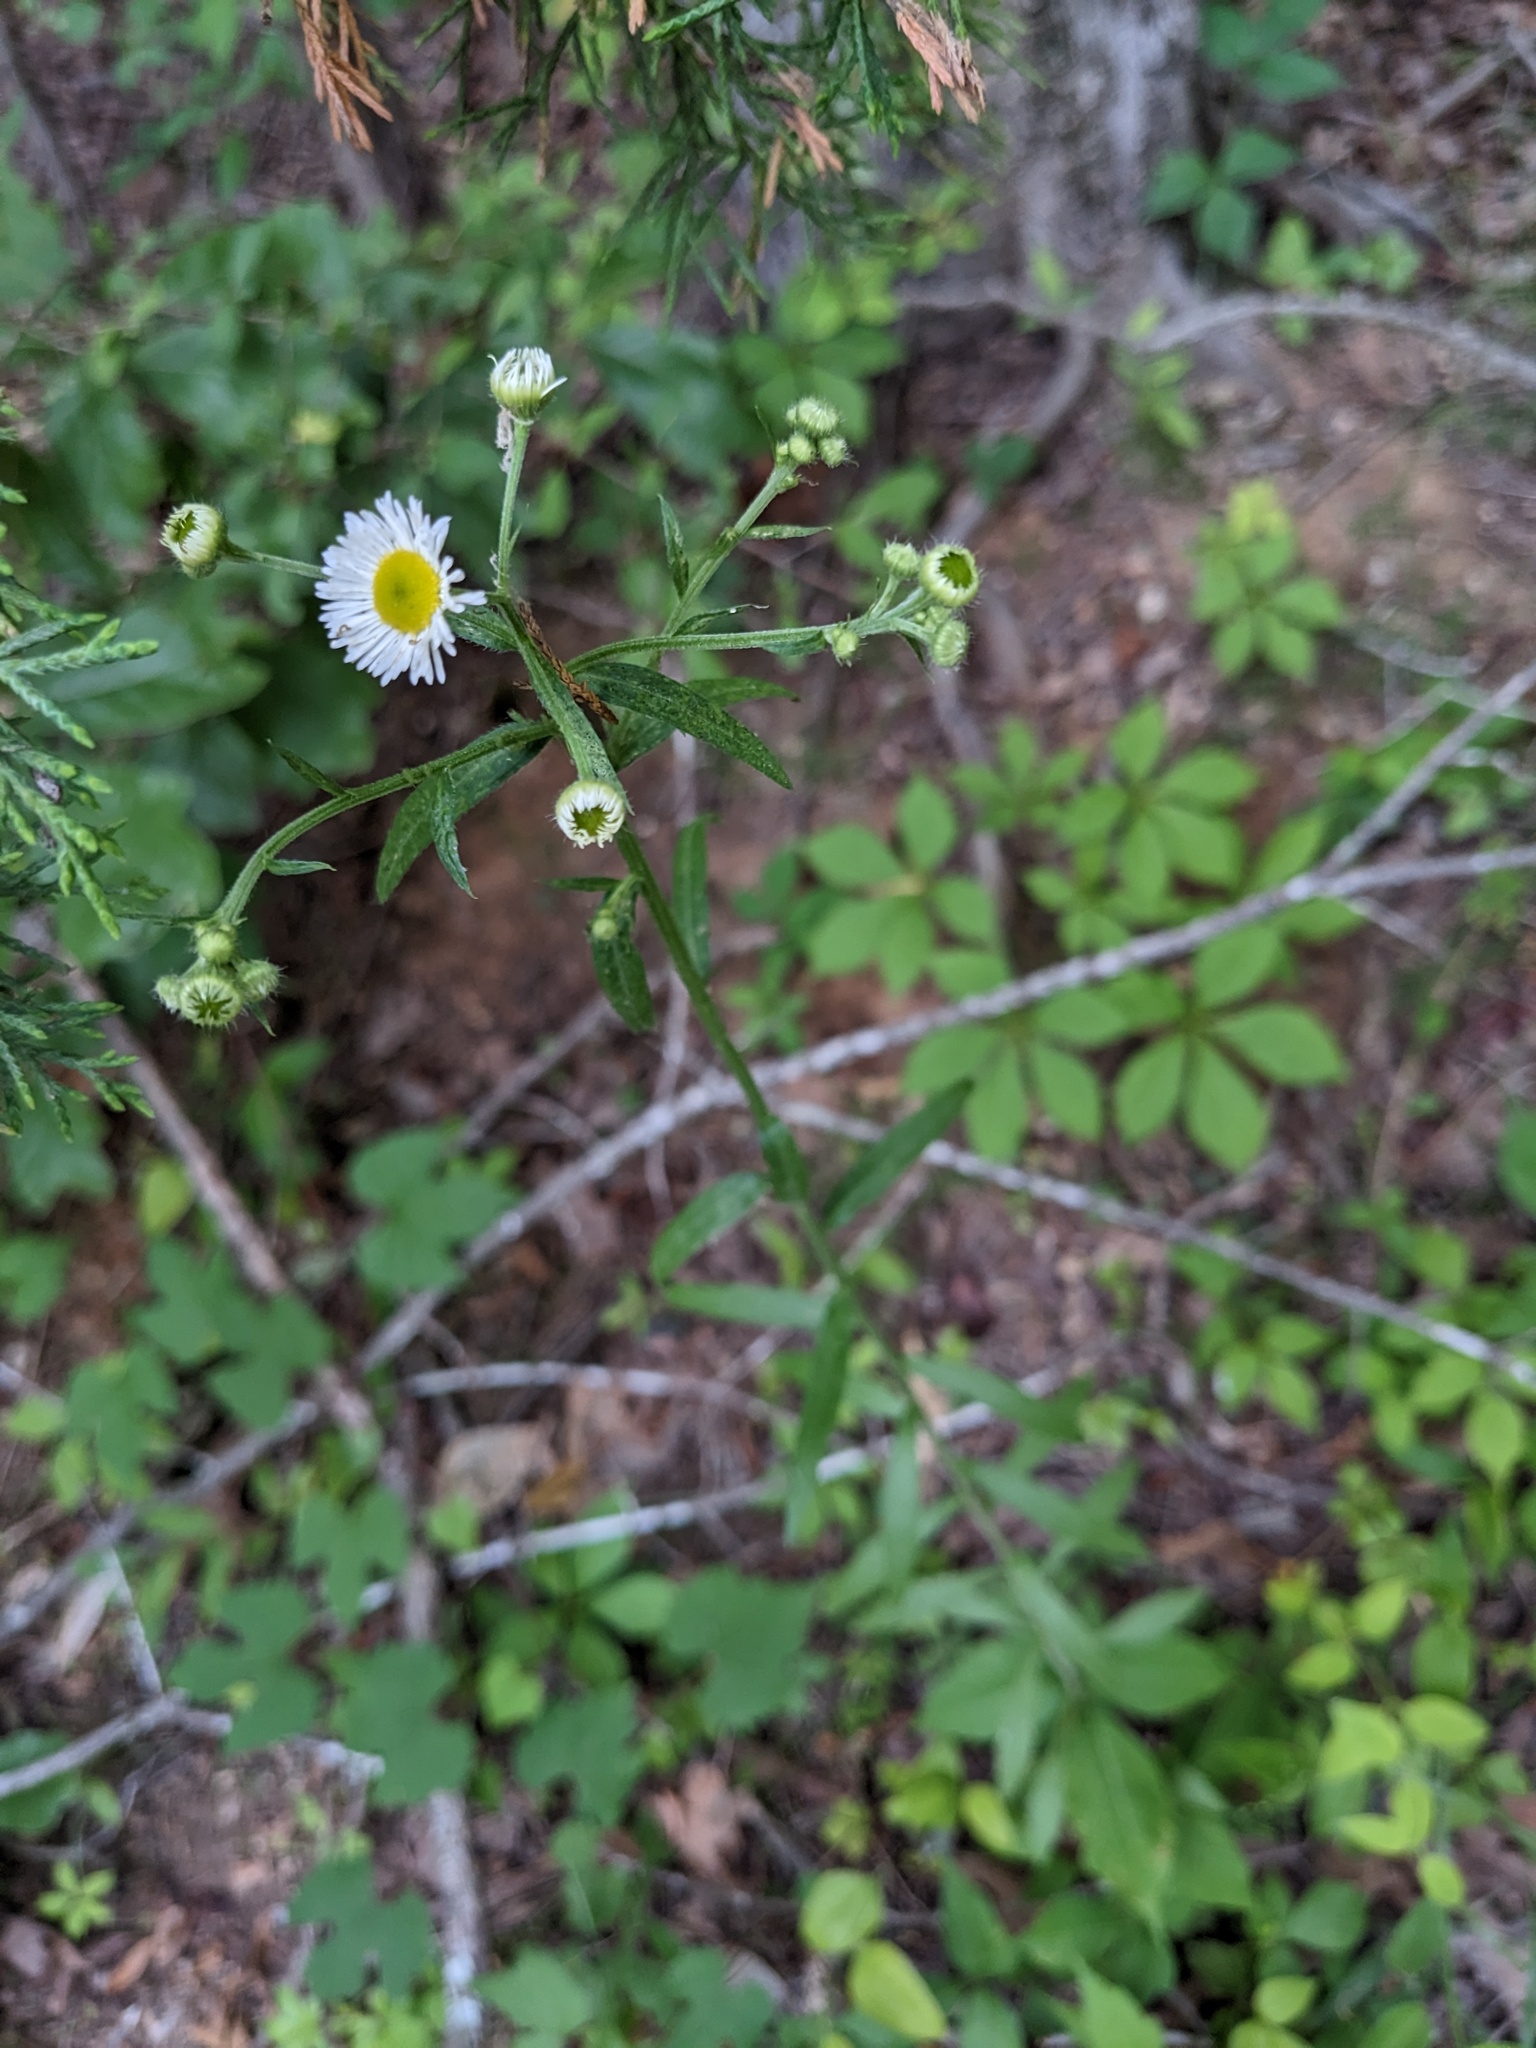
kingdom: Plantae
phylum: Tracheophyta
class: Magnoliopsida
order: Asterales
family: Asteraceae
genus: Erigeron
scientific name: Erigeron strigosus
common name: Common eastern fleabane
